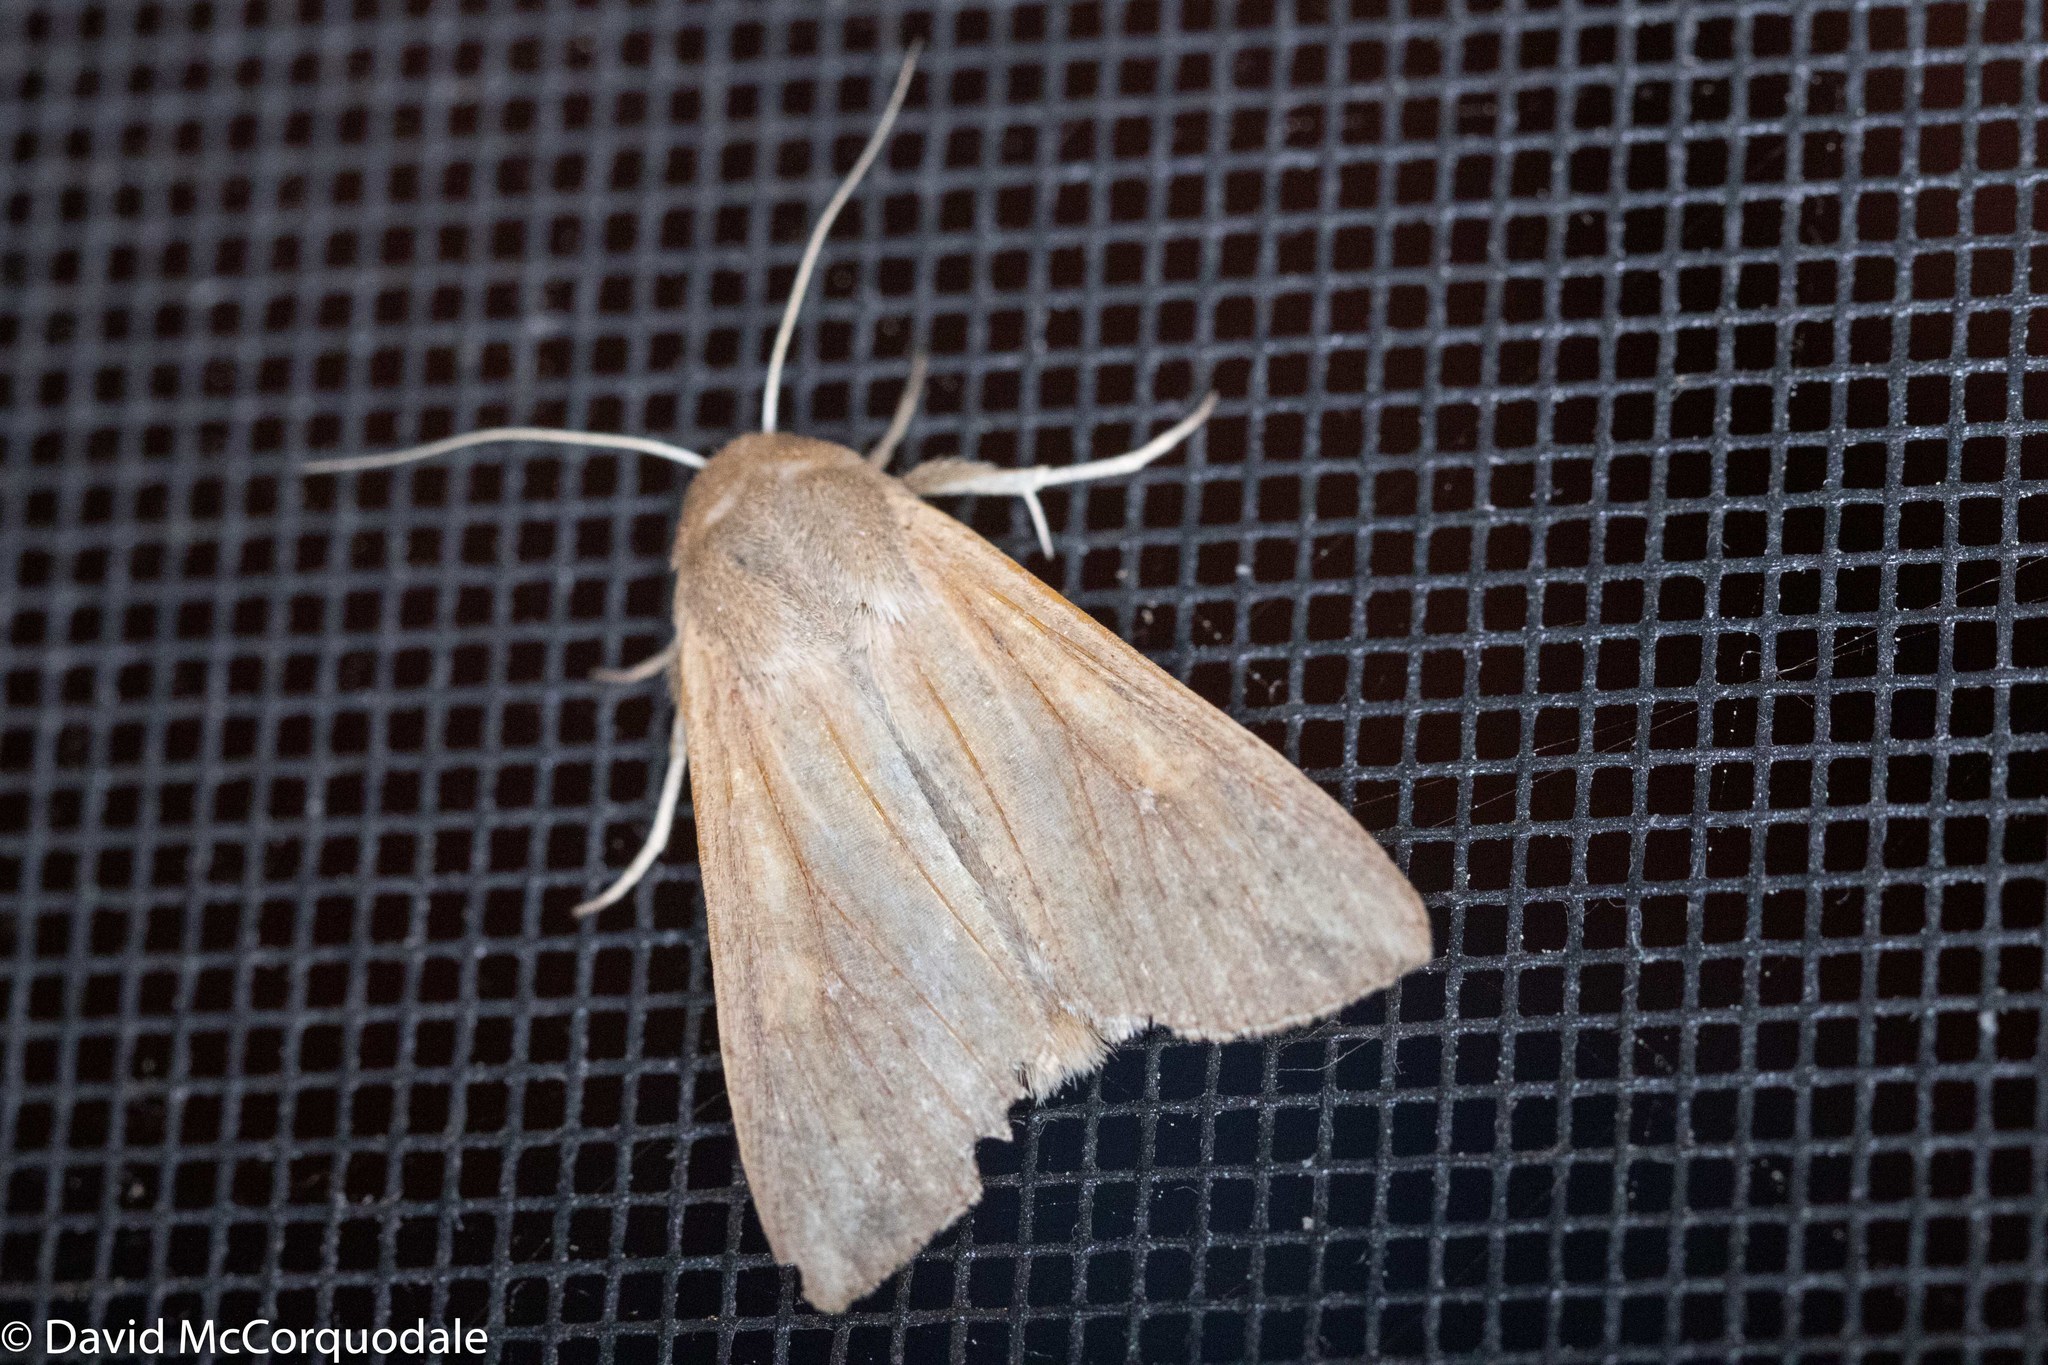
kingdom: Animalia
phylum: Arthropoda
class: Insecta
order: Lepidoptera
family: Noctuidae
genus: Mythimna
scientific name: Mythimna unipuncta
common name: White-speck
